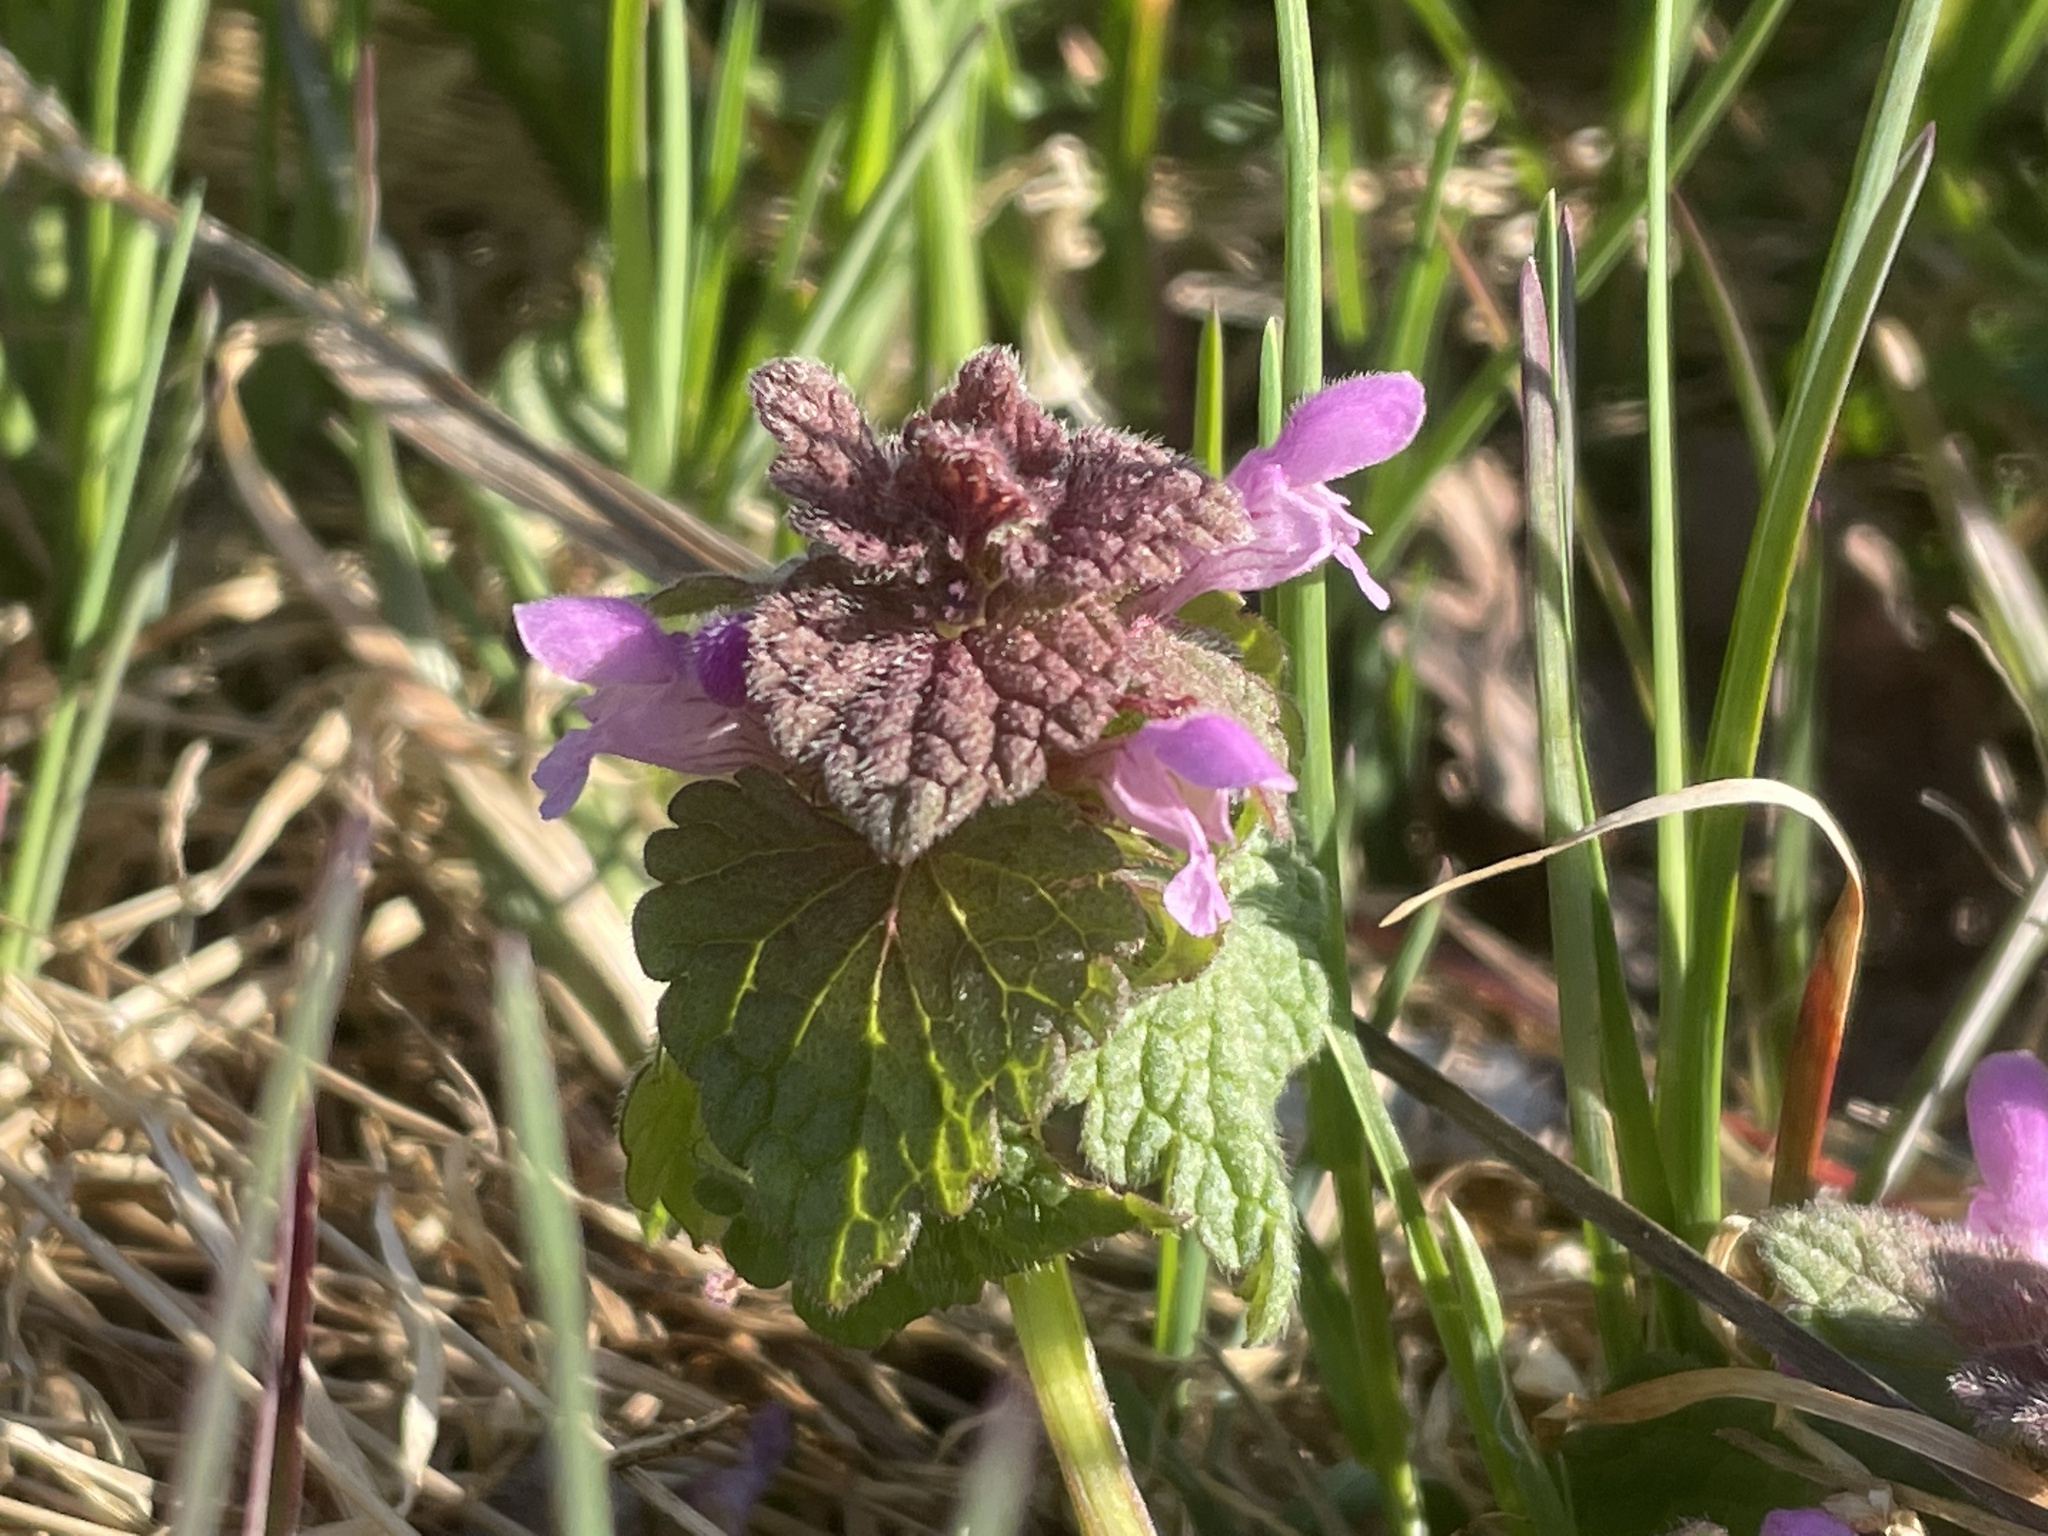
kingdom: Plantae
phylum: Tracheophyta
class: Magnoliopsida
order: Lamiales
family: Lamiaceae
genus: Lamium
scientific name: Lamium purpureum
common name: Red dead-nettle
